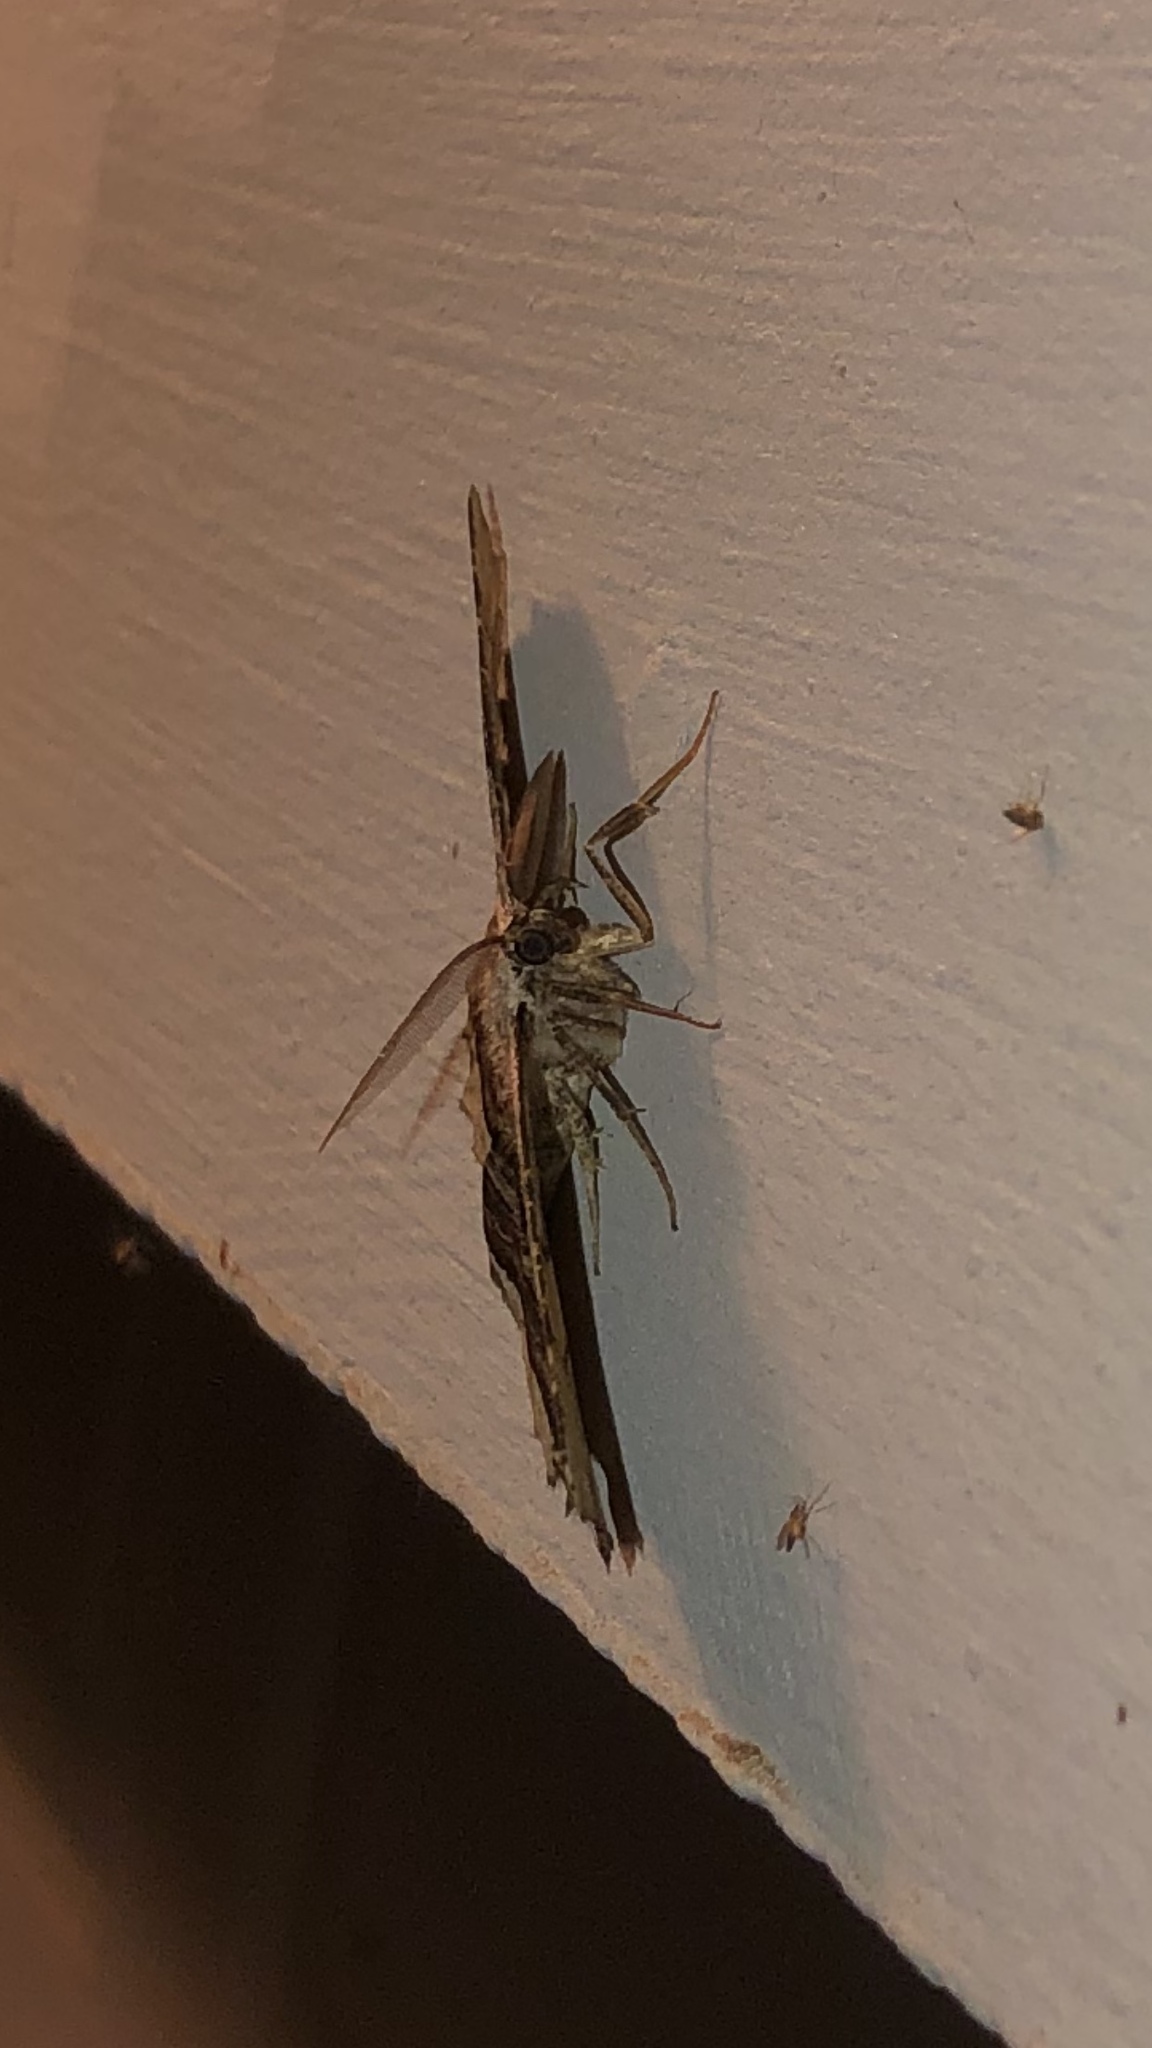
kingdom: Animalia
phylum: Arthropoda
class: Insecta
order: Lepidoptera
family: Geometridae
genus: Lytrosis
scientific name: Lytrosis unitaria
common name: Common lytrosis
